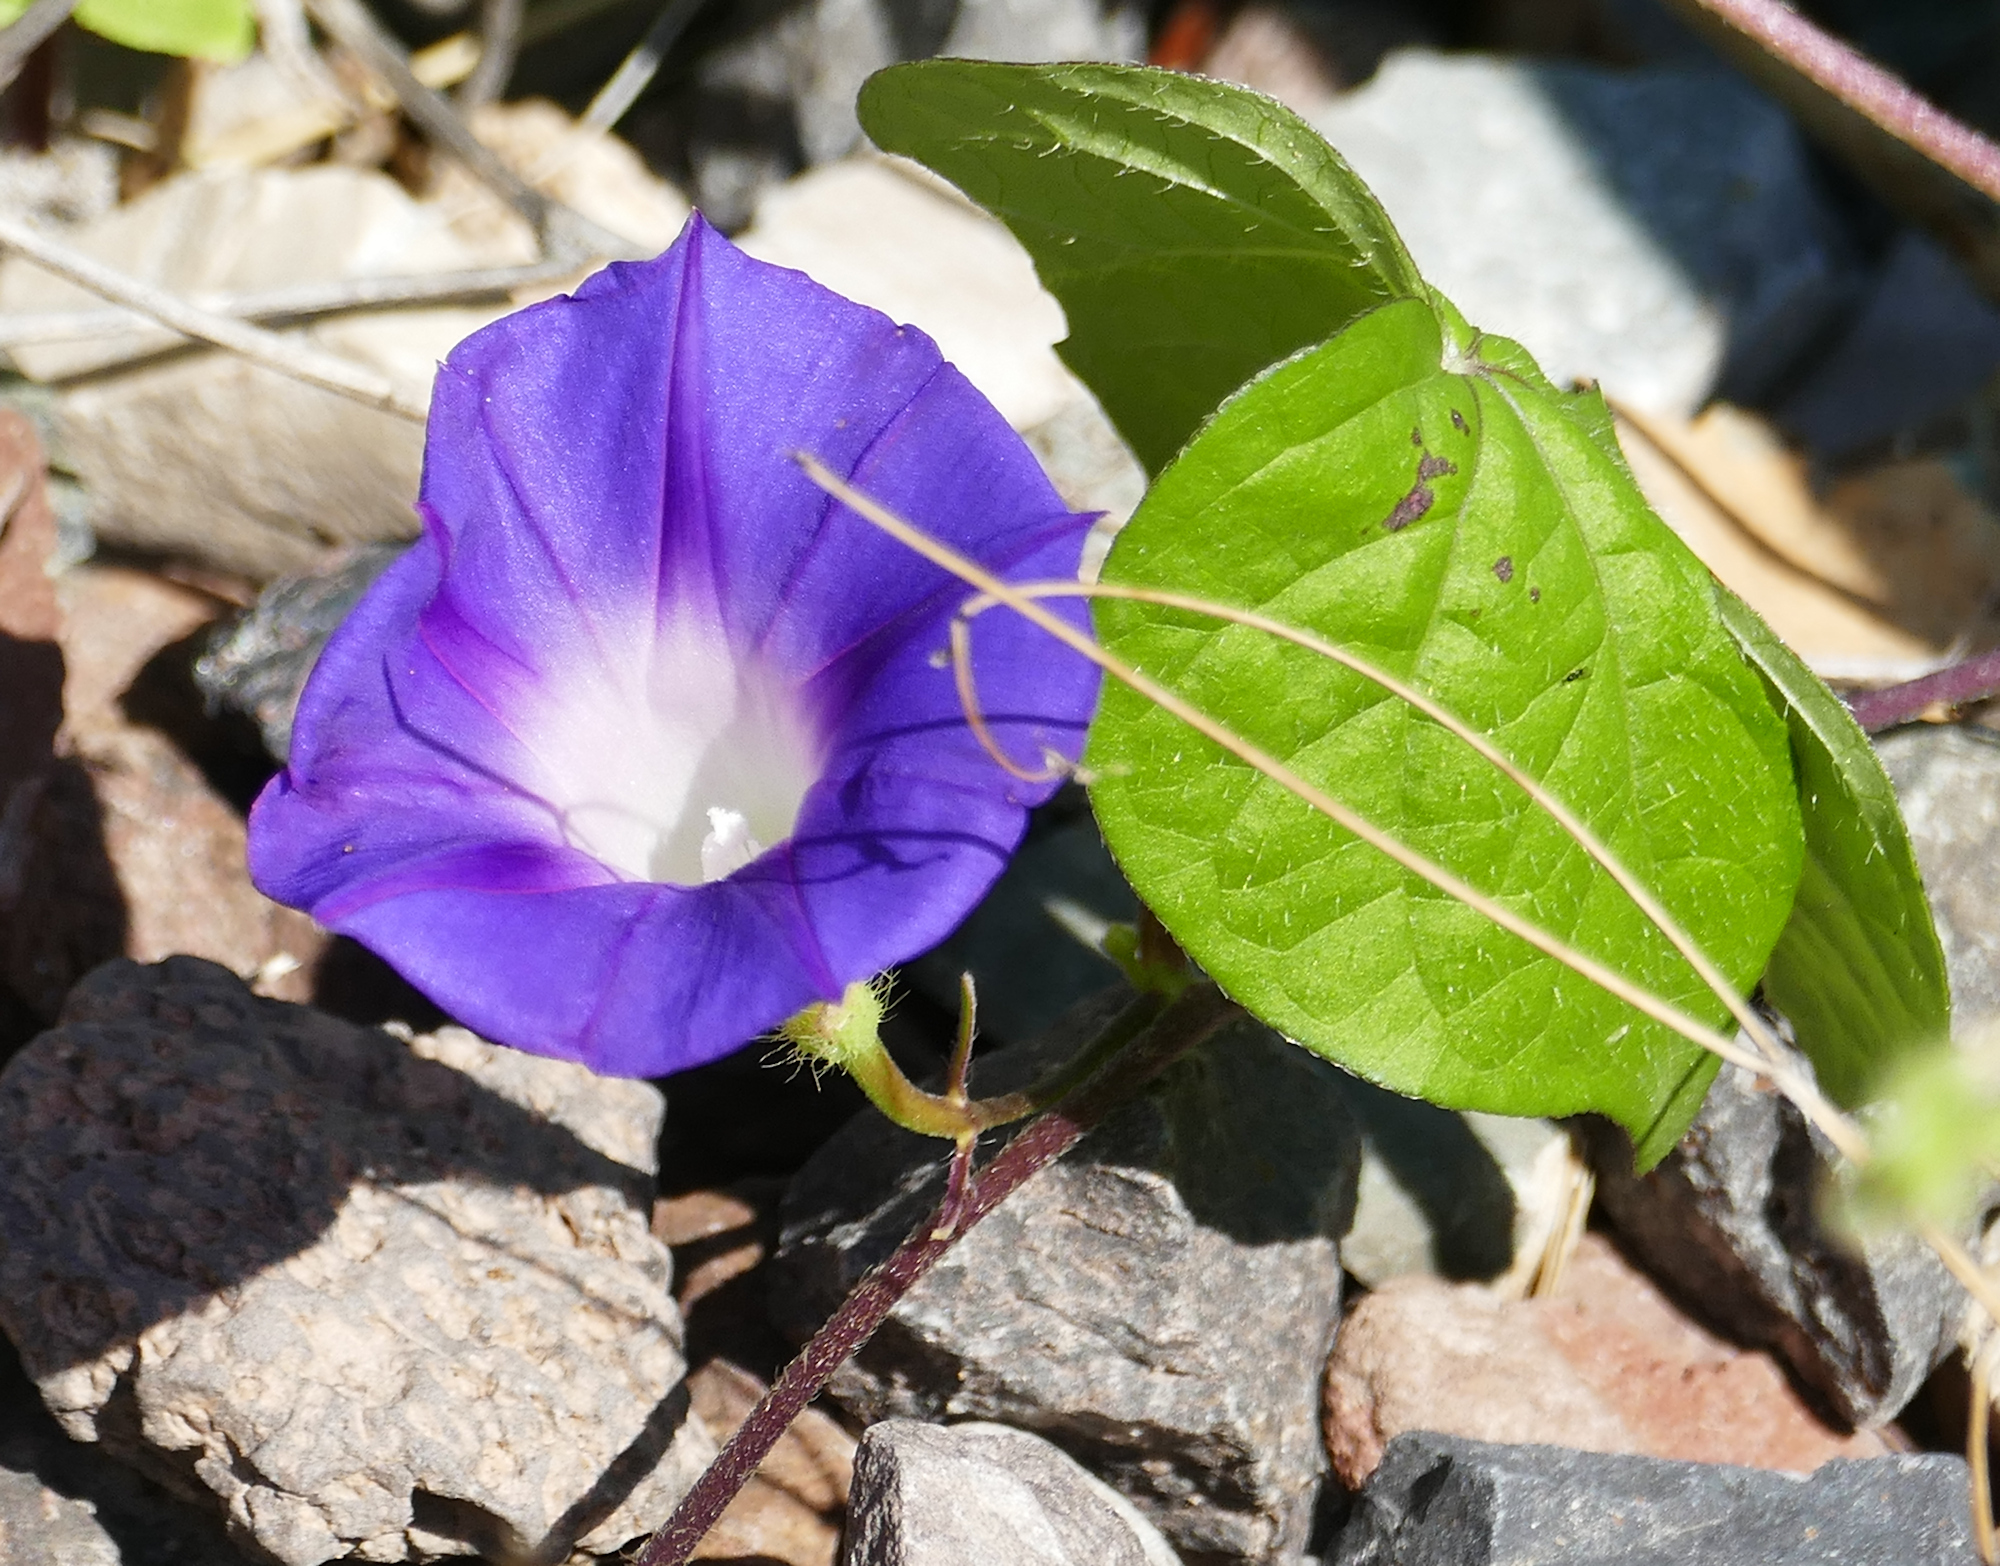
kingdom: Plantae
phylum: Tracheophyta
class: Magnoliopsida
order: Solanales
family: Convolvulaceae
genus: Ipomoea
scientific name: Ipomoea hederacea
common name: Ivy-leaved morning-glory
